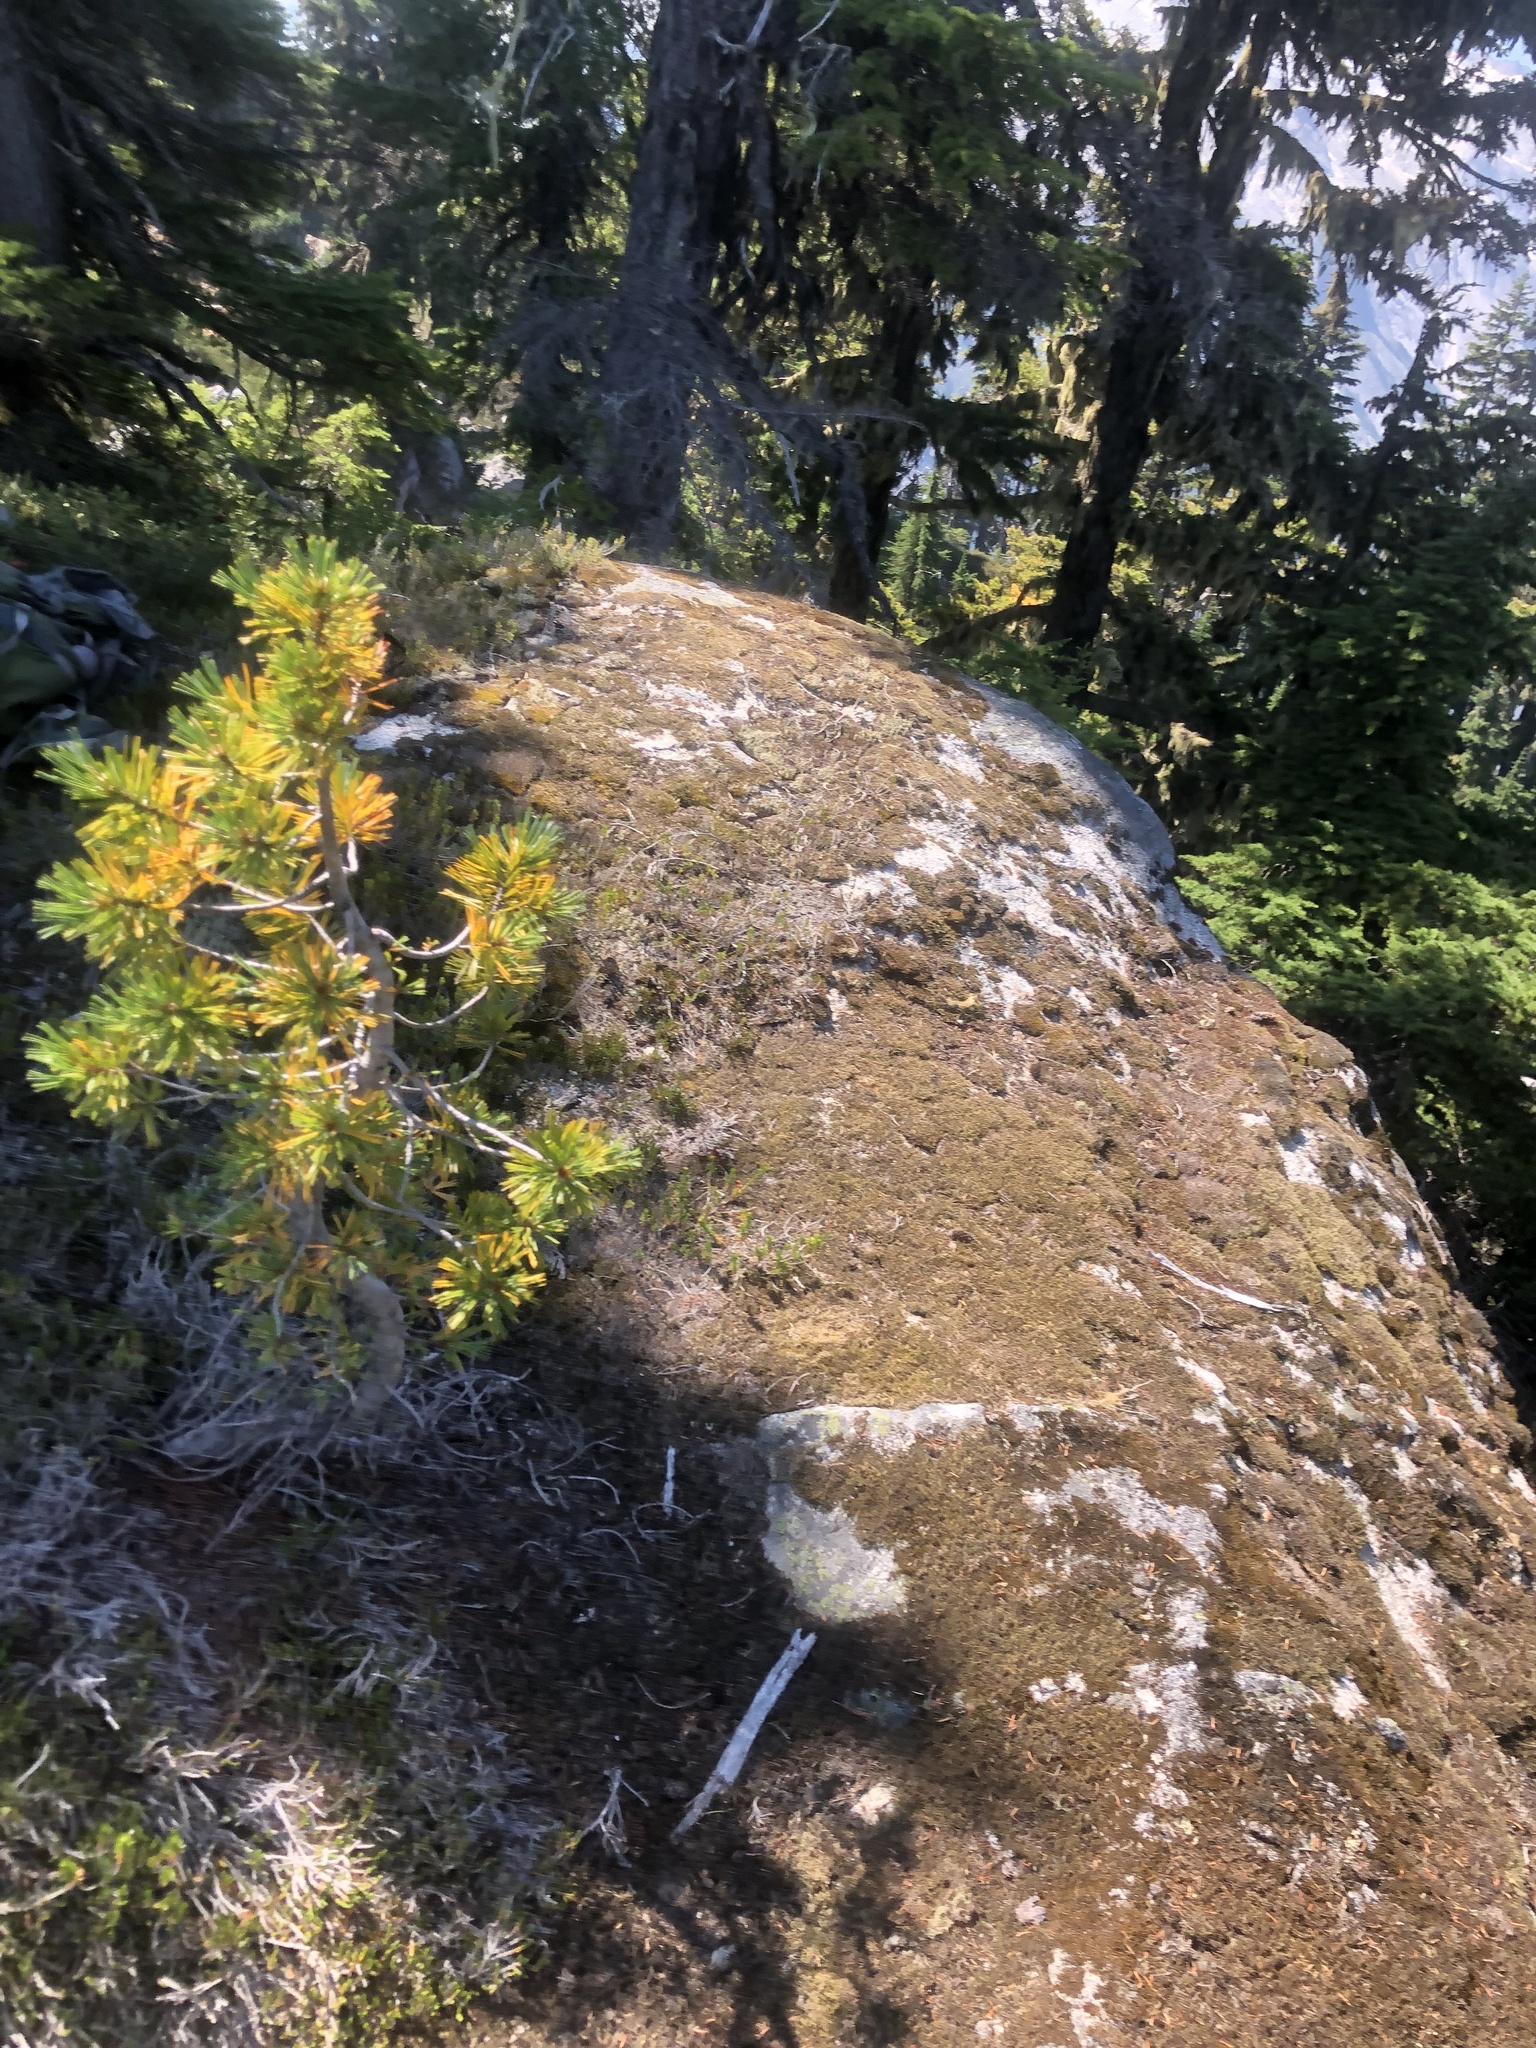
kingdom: Plantae
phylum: Tracheophyta
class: Pinopsida
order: Pinales
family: Pinaceae
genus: Pinus
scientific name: Pinus albicaulis
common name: Whitebark pine
